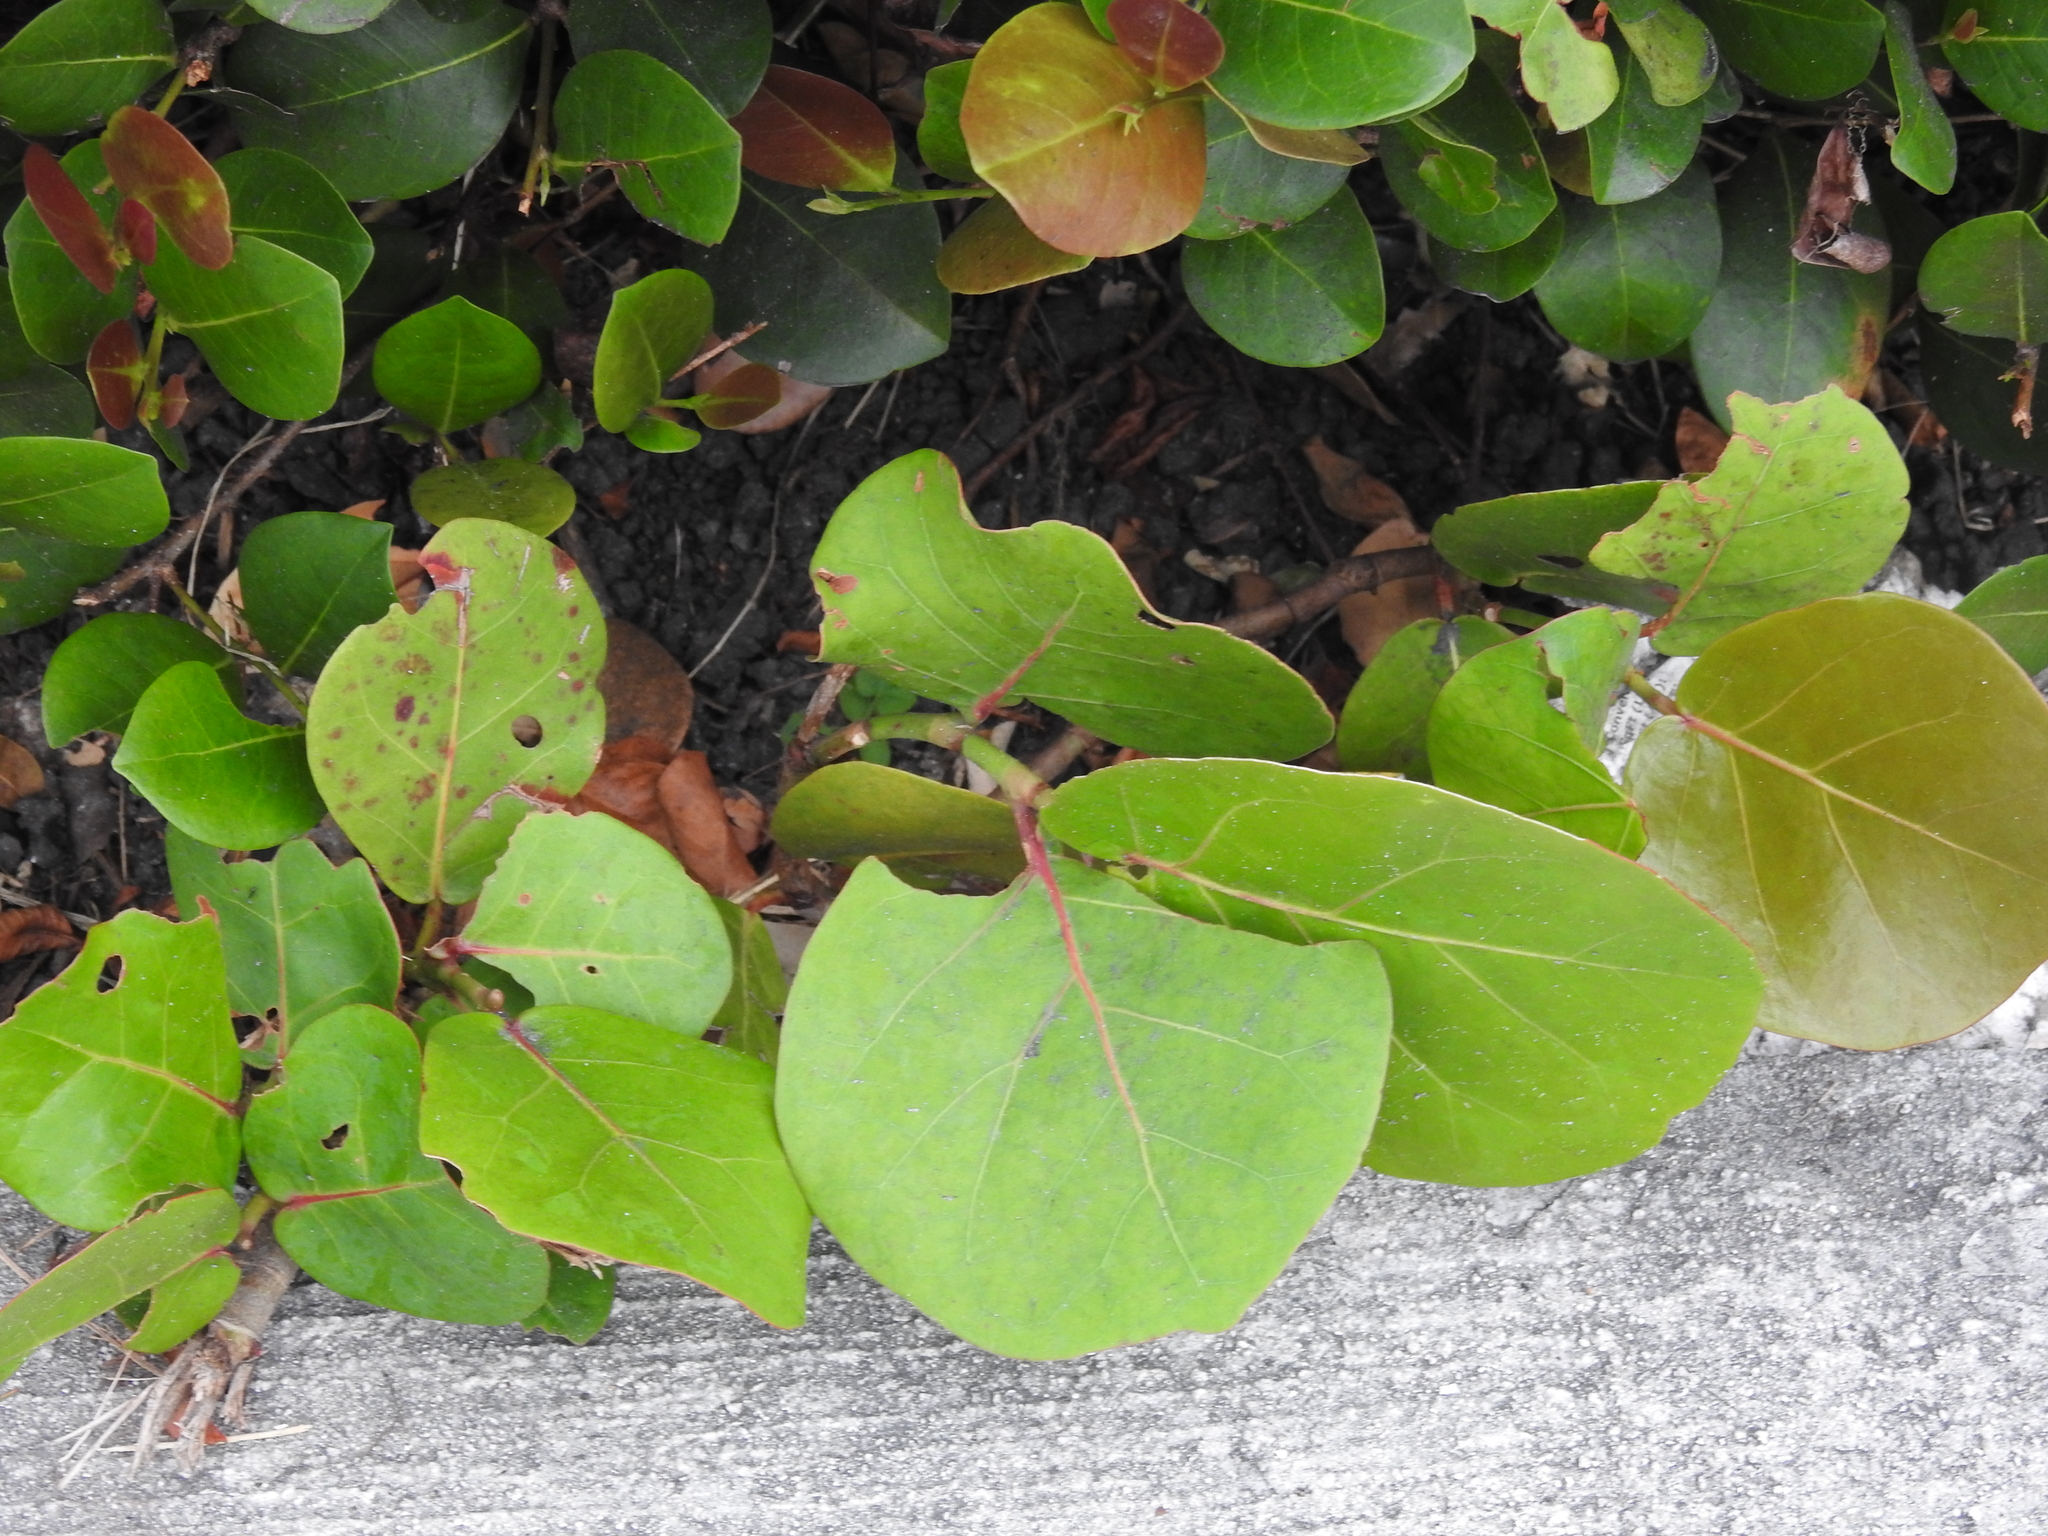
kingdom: Plantae
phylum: Tracheophyta
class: Magnoliopsida
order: Caryophyllales
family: Polygonaceae
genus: Coccoloba
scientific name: Coccoloba uvifera
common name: Seagrape
